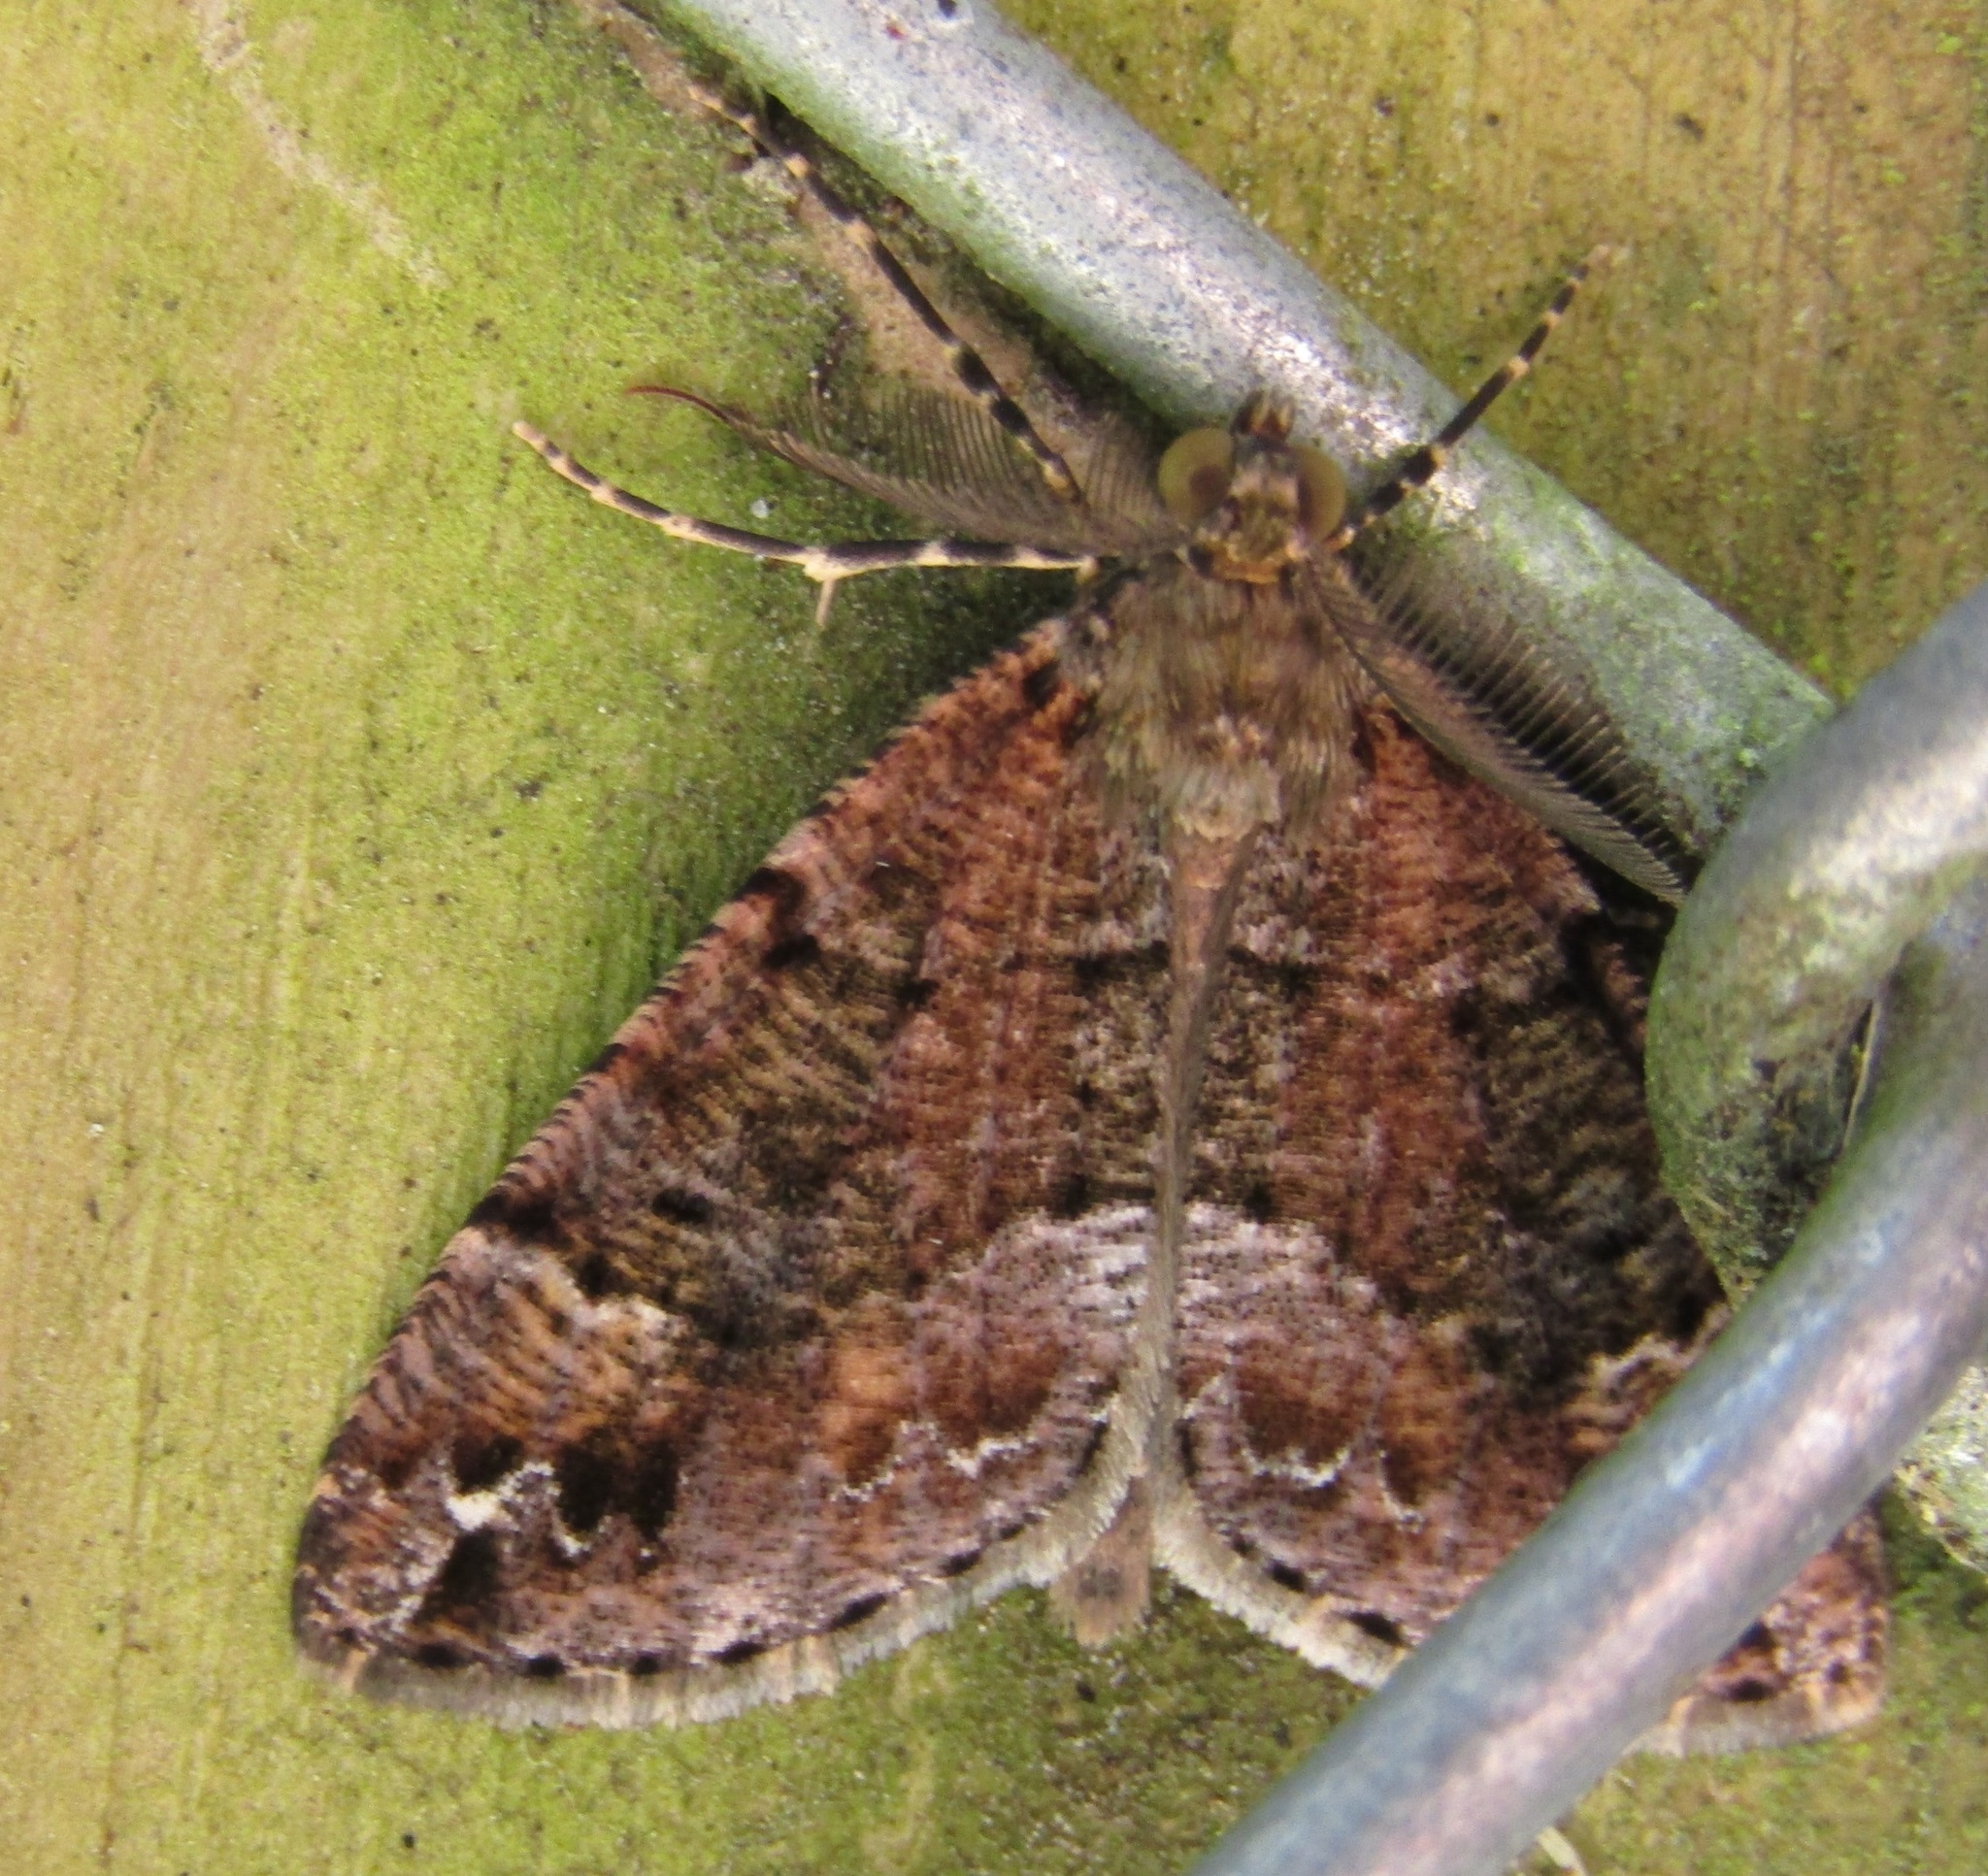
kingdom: Animalia
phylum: Arthropoda
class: Insecta
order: Lepidoptera
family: Geometridae
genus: Pseudocoremia
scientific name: Pseudocoremia productata
